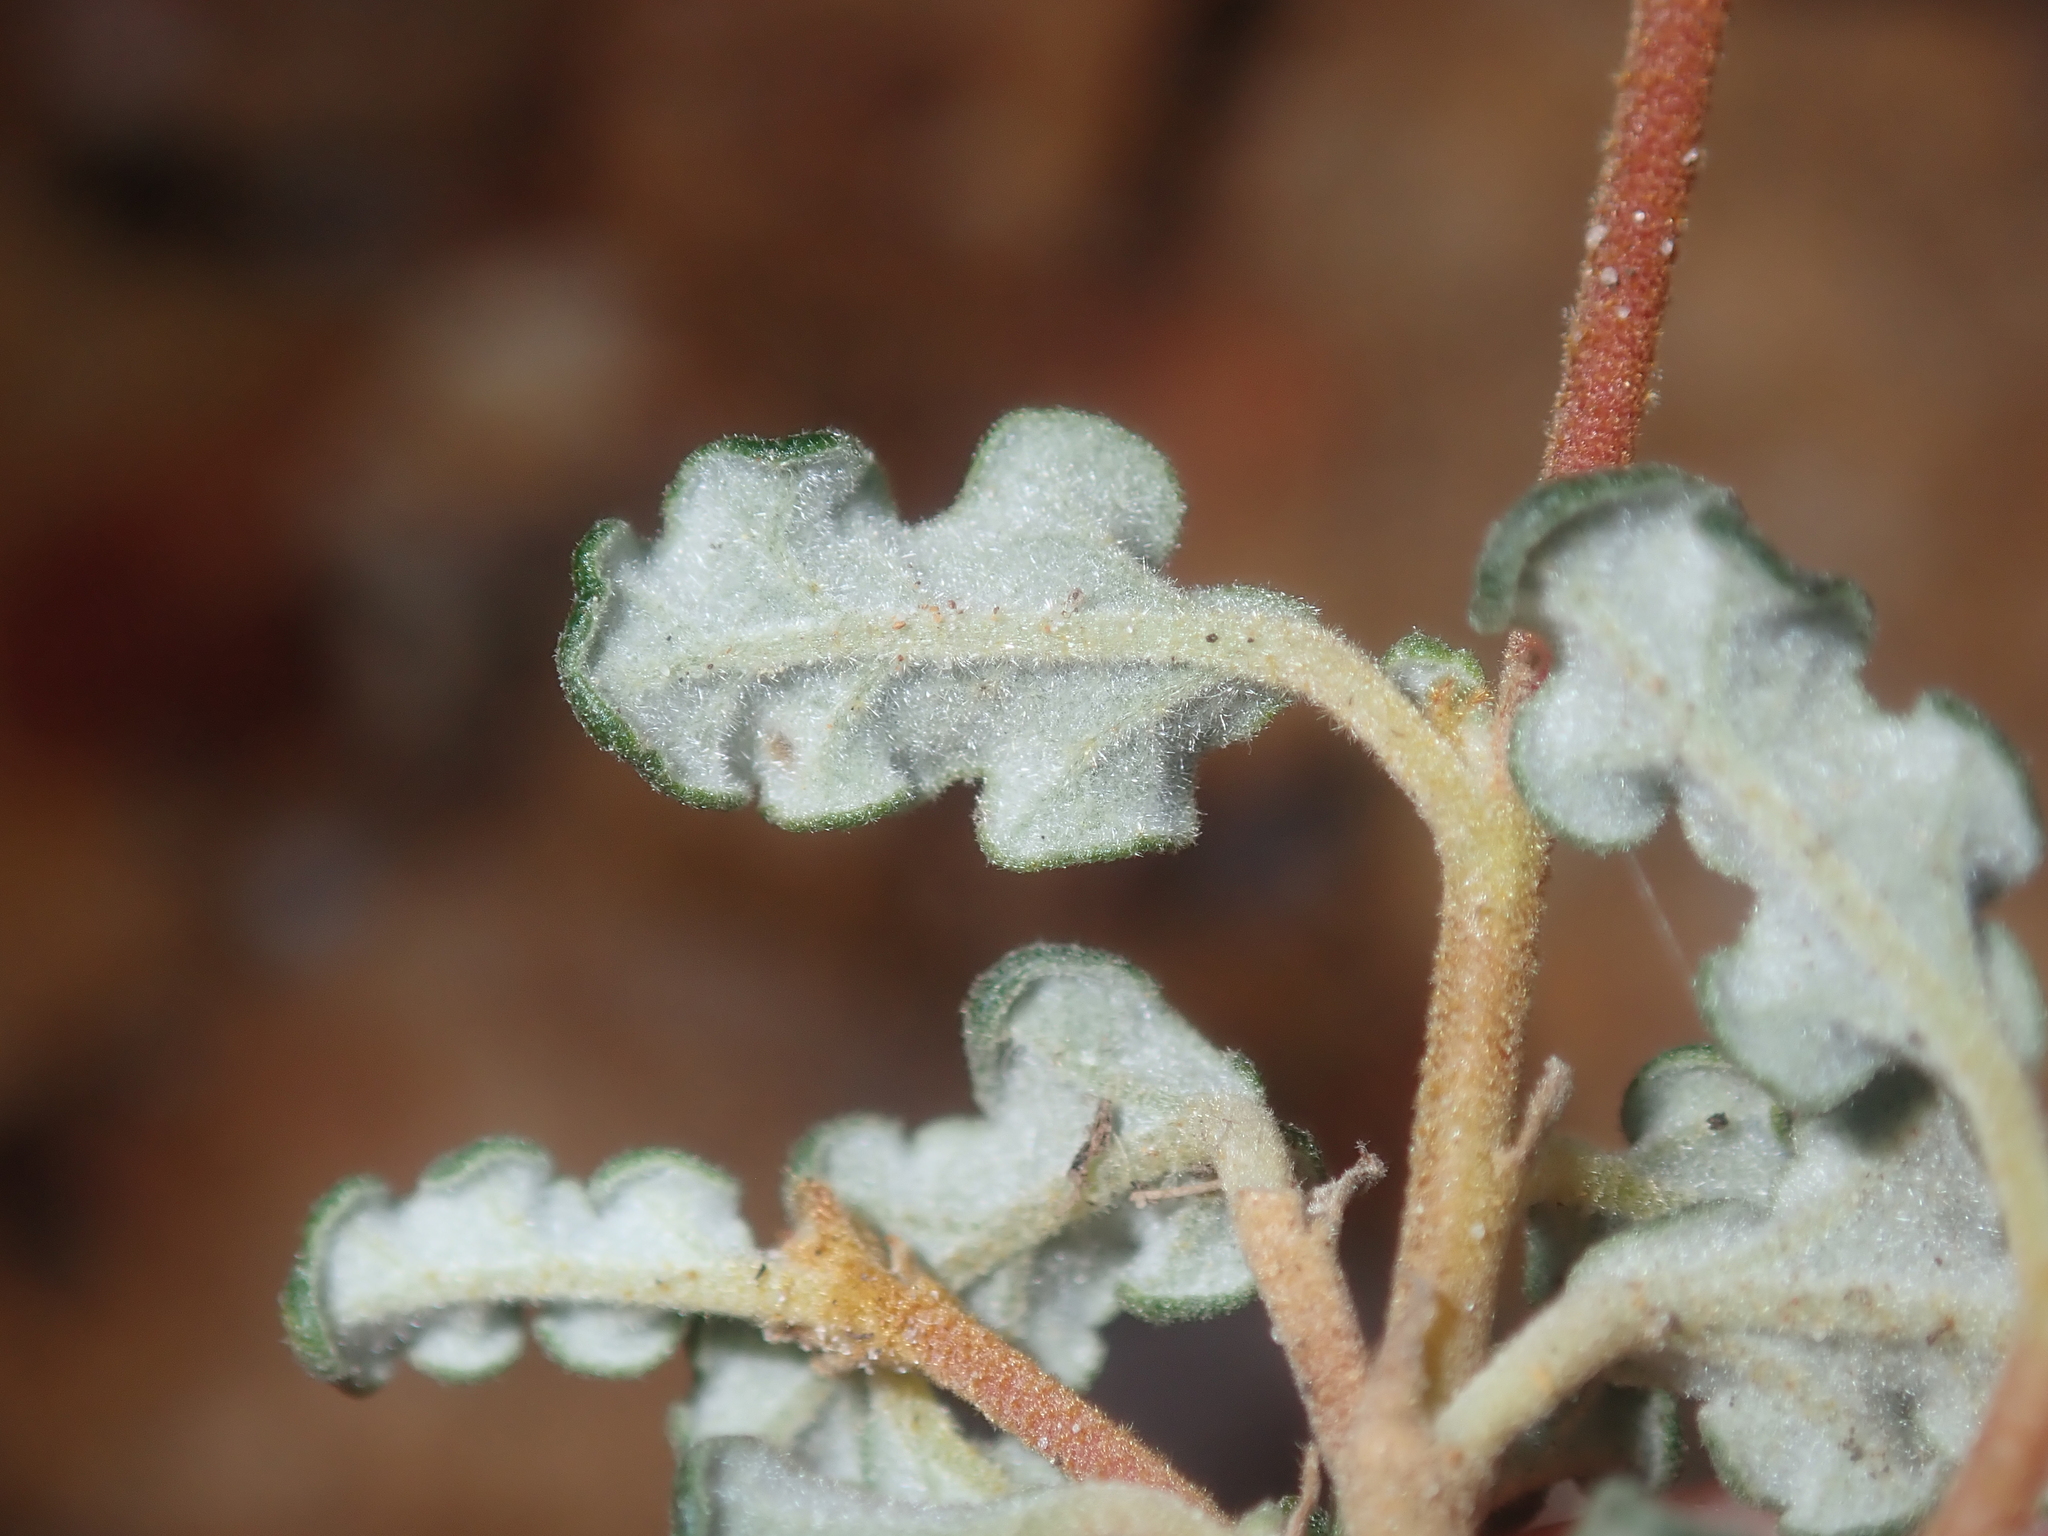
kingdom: Plantae
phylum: Tracheophyta
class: Magnoliopsida
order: Malvales
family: Malvaceae
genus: Androcalva
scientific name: Androcalva pulchella
